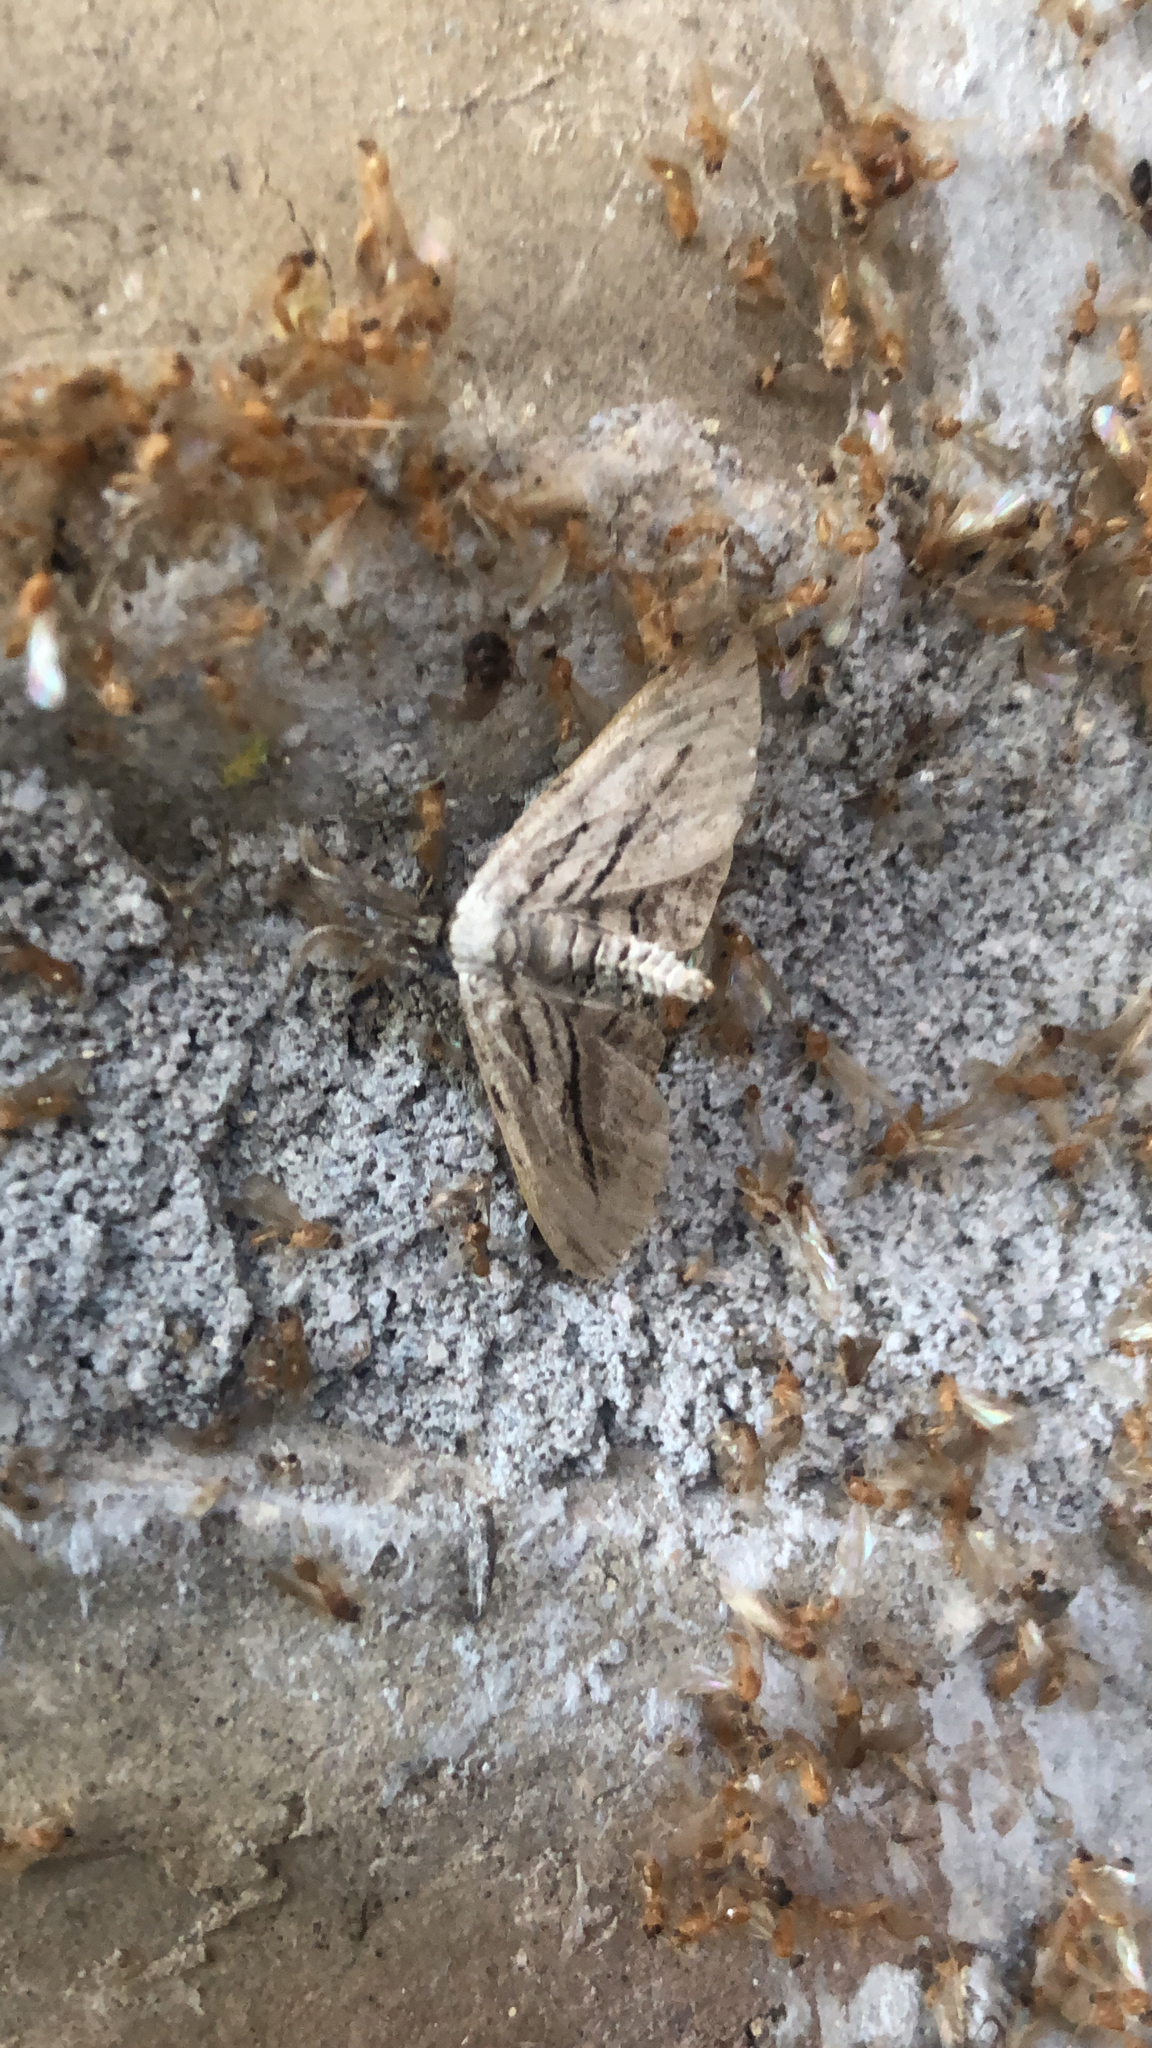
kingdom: Animalia
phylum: Arthropoda
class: Insecta
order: Lepidoptera
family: Geometridae
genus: Glena
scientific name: Glena quinquelinearia
